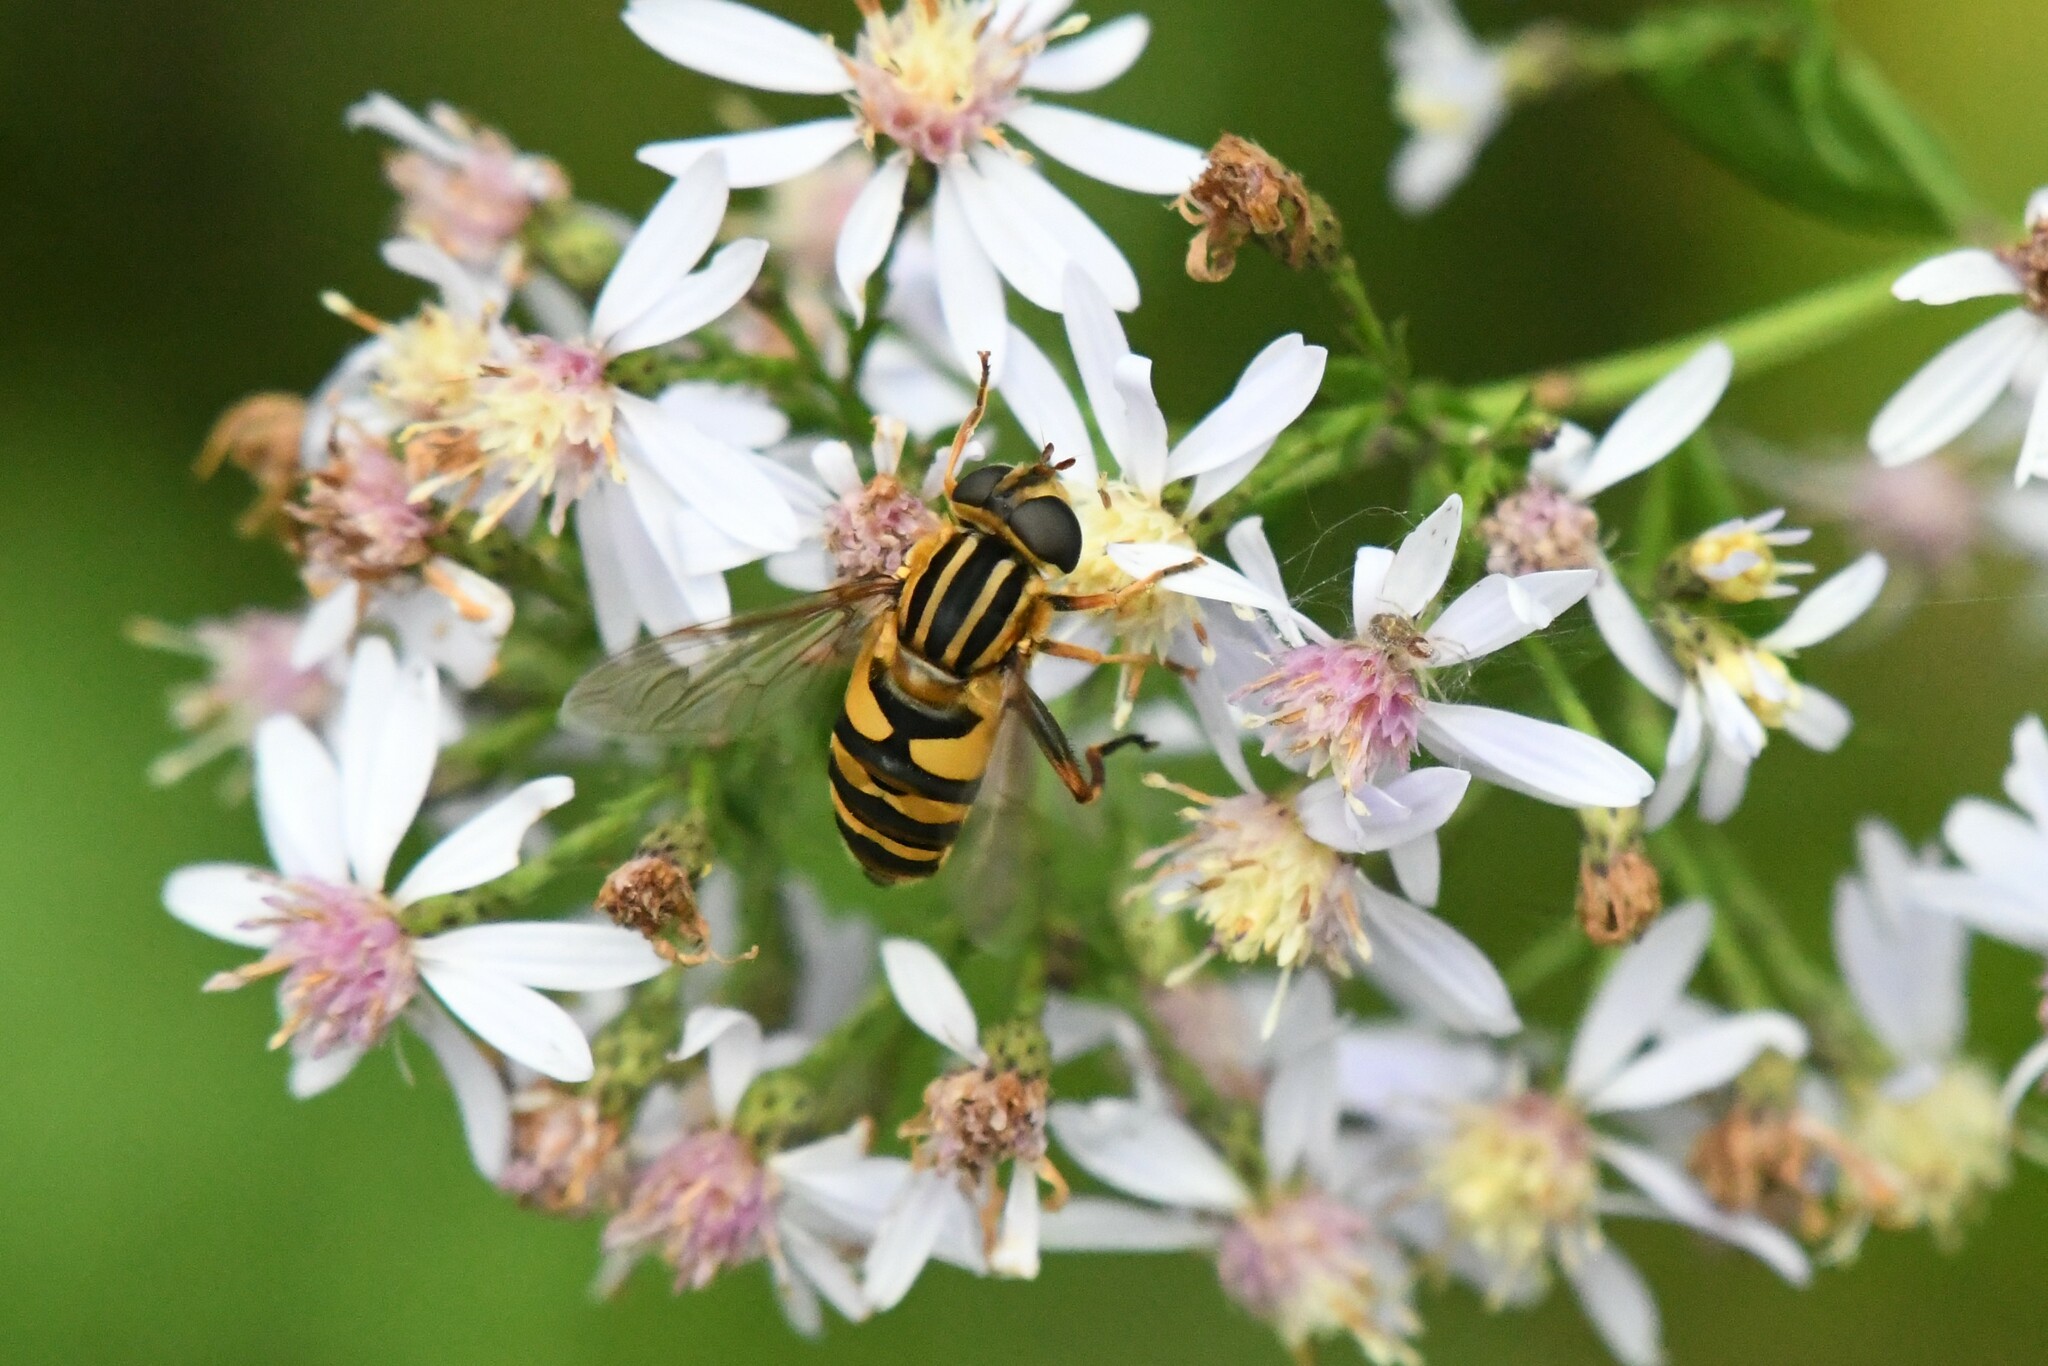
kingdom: Animalia
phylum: Arthropoda
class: Insecta
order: Diptera
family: Syrphidae
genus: Helophilus
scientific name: Helophilus fasciatus
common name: Narrow-headed marsh fly
